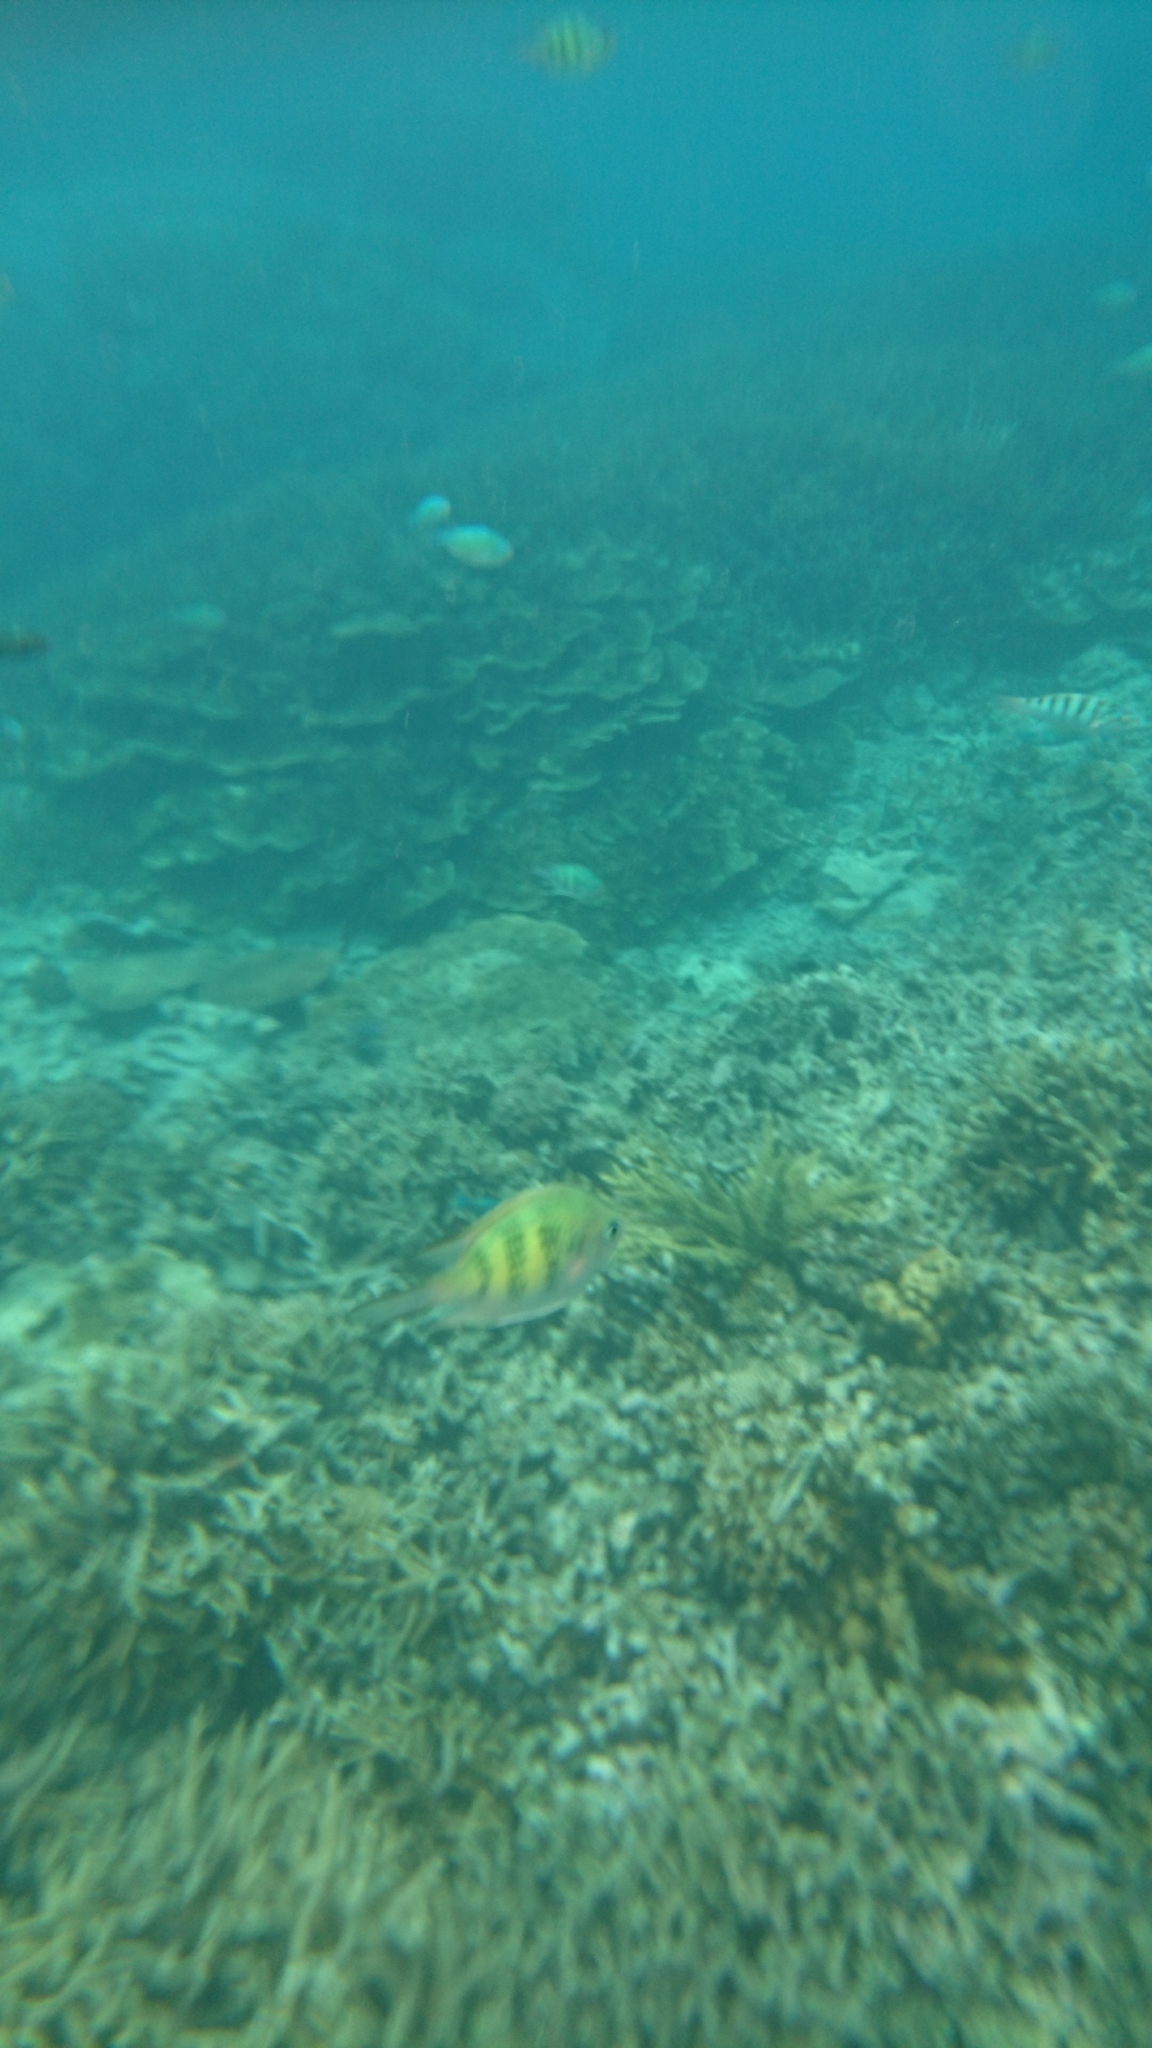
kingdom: Animalia
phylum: Chordata
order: Perciformes
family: Pomacentridae
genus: Amblyglyphidodon
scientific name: Amblyglyphidodon curacao
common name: Staghorn damsel
